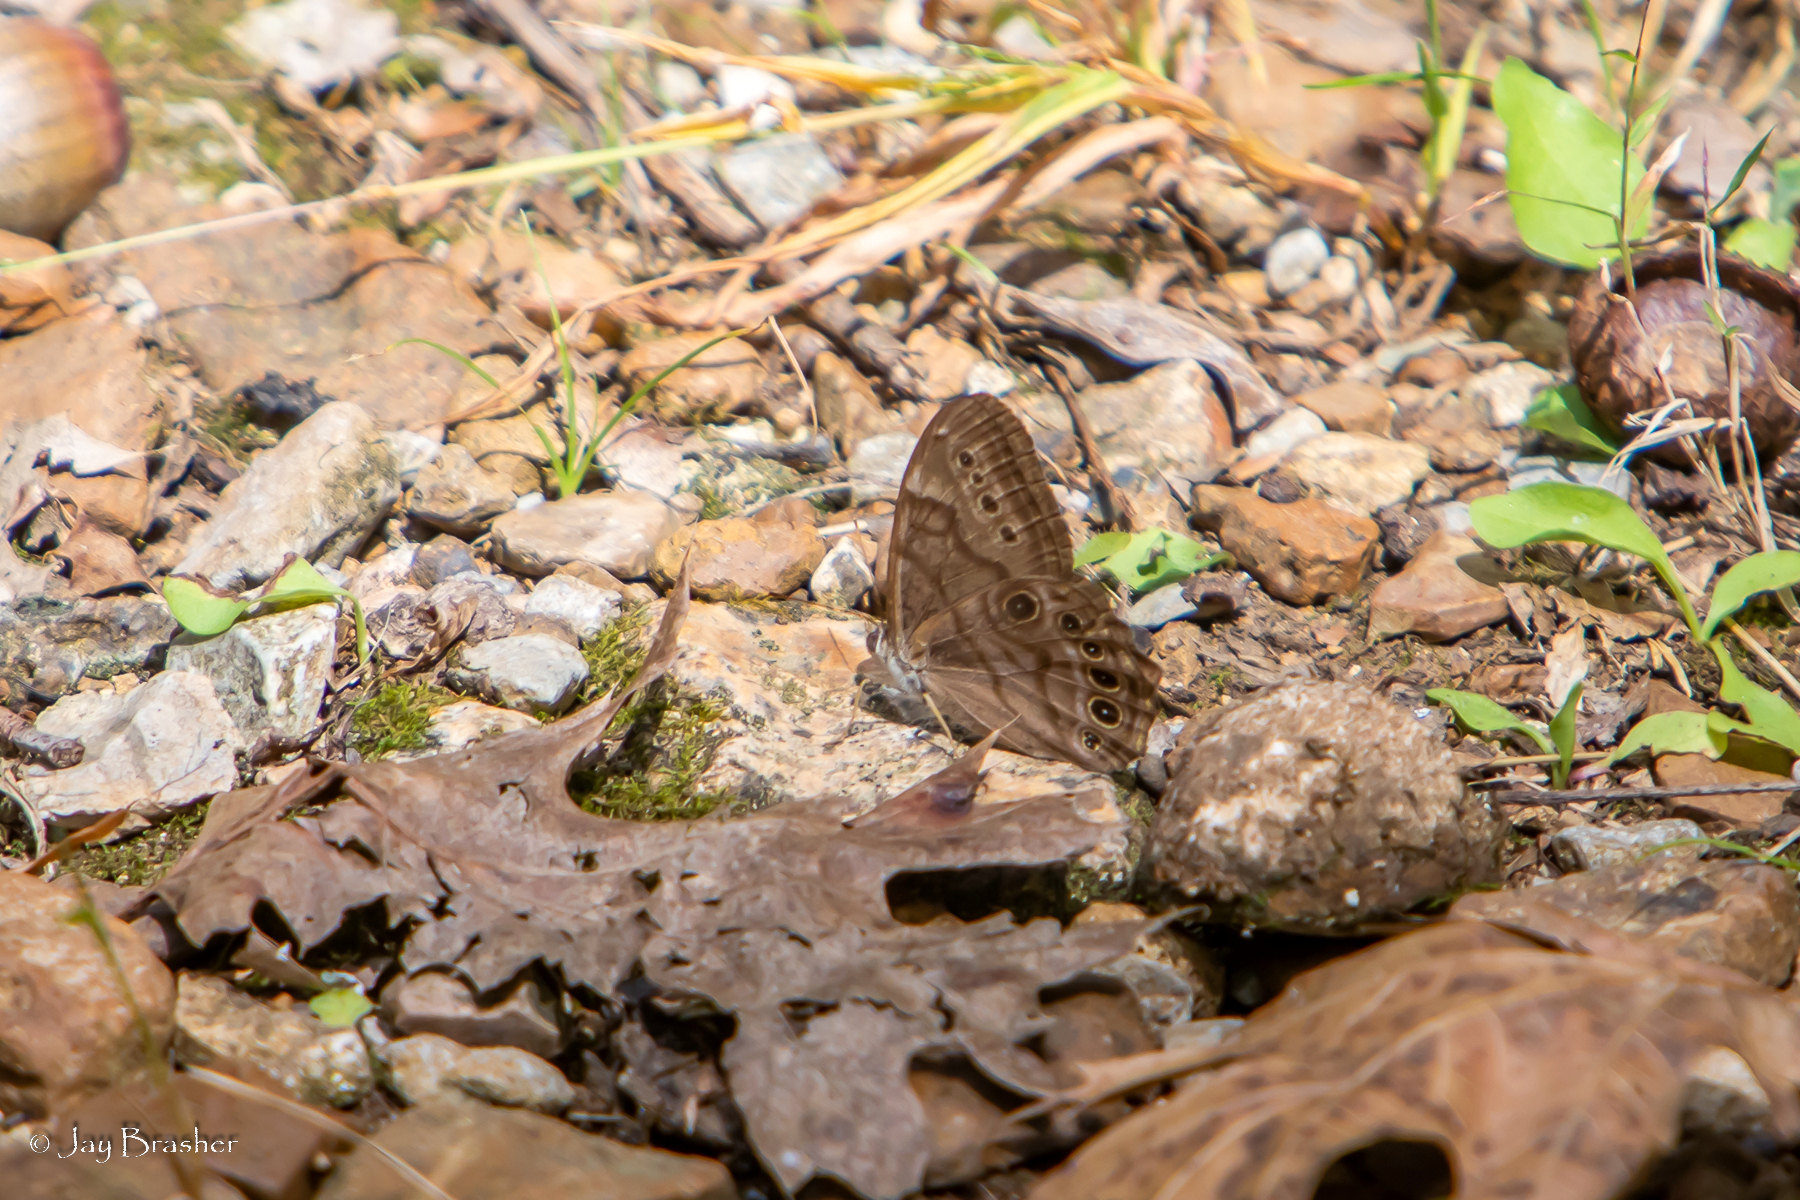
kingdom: Animalia
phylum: Arthropoda
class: Insecta
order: Lepidoptera
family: Nymphalidae
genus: Lethe
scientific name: Lethe anthedon
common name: Northern pearly-eye
